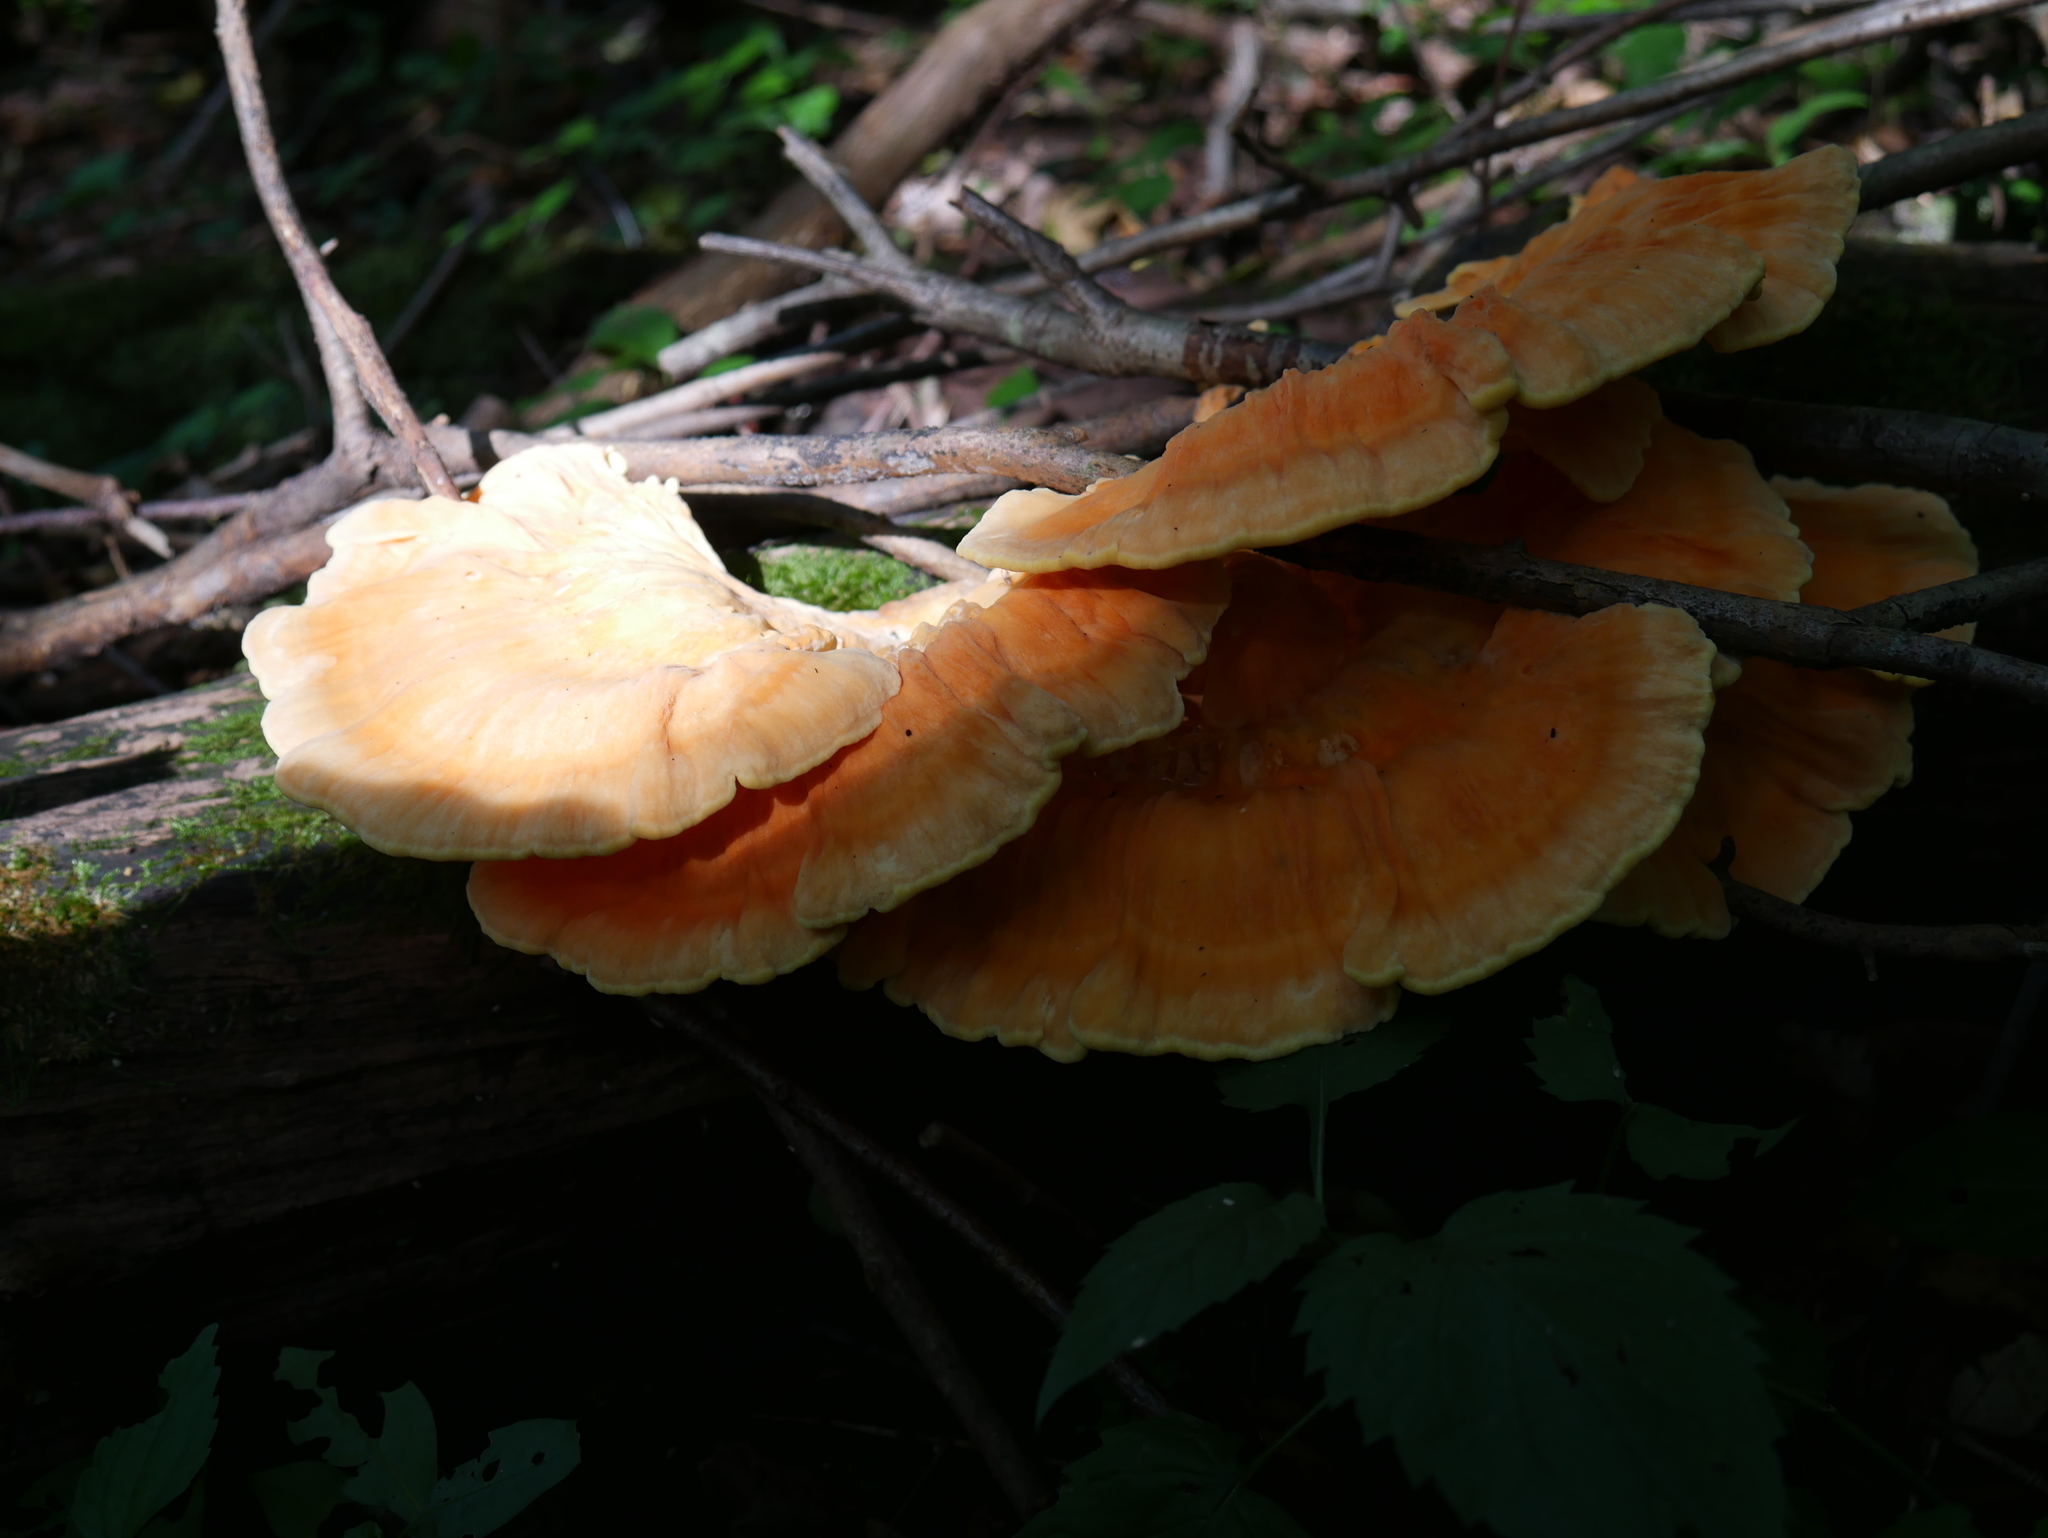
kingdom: Fungi
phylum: Basidiomycota
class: Agaricomycetes
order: Polyporales
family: Laetiporaceae
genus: Laetiporus
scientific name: Laetiporus sulphureus
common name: Chicken of the woods
